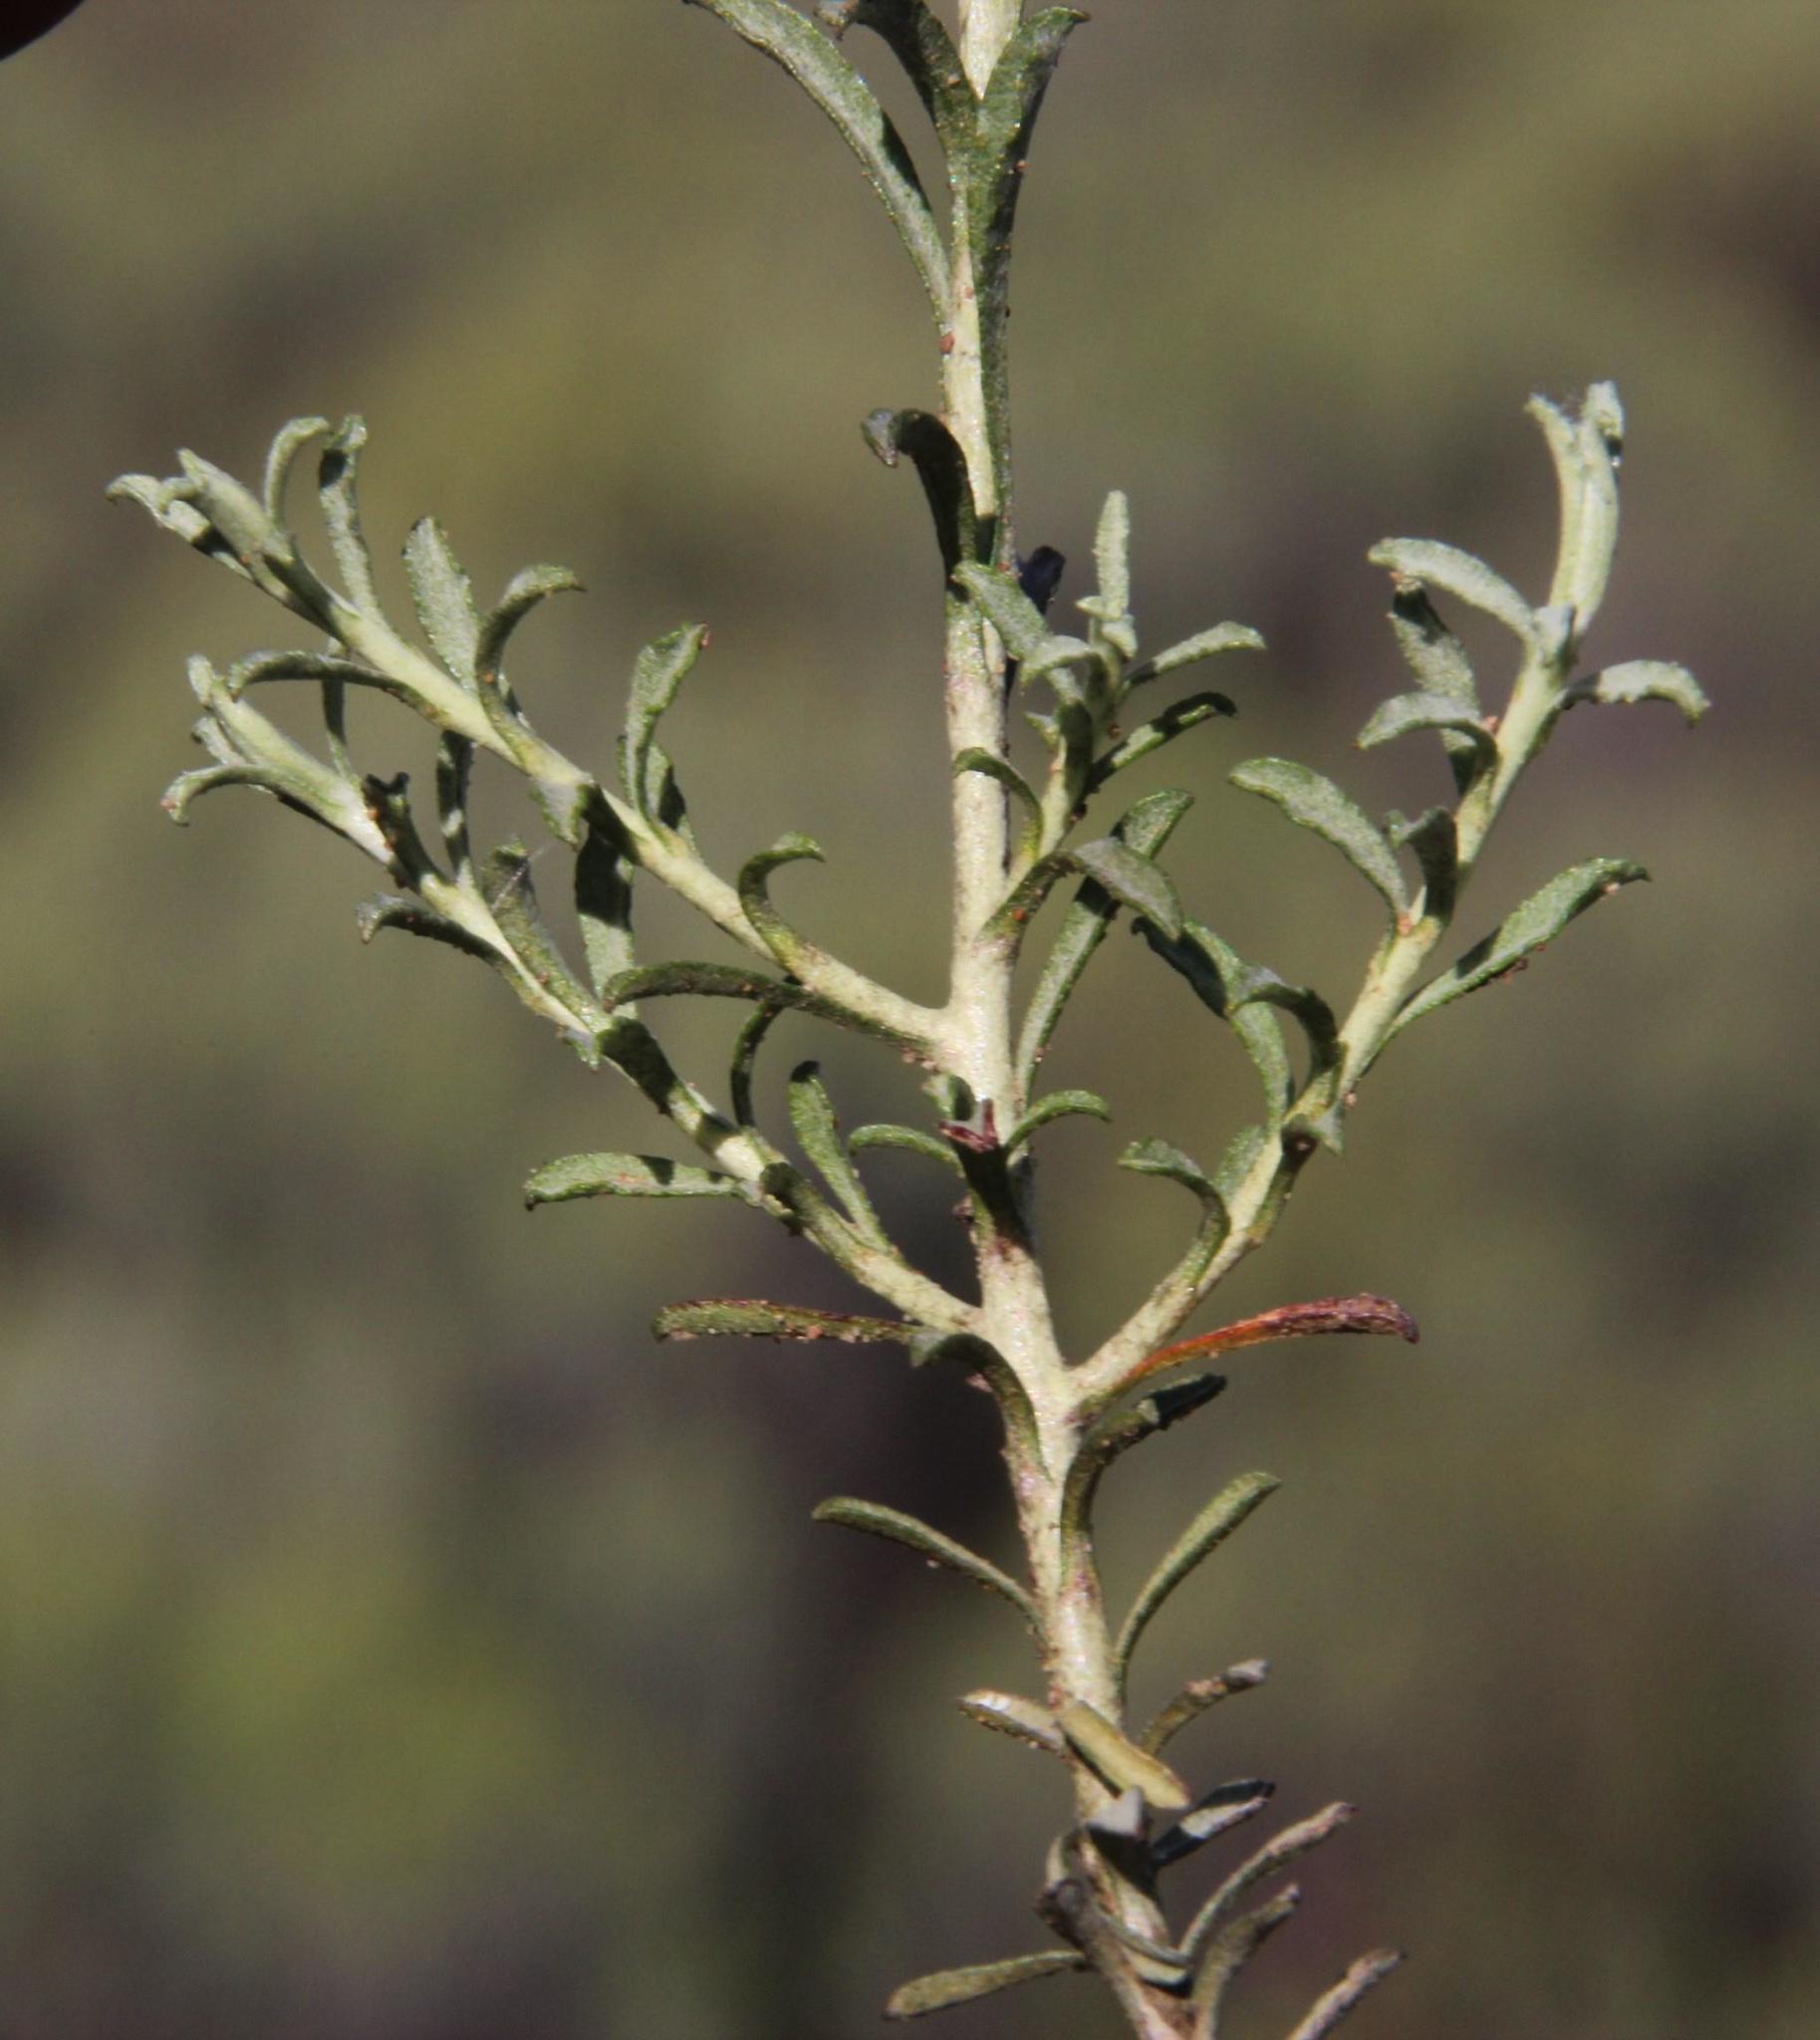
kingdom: Plantae
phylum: Tracheophyta
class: Magnoliopsida
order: Asterales
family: Asteraceae
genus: Helichrysum
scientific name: Helichrysum rutilans
